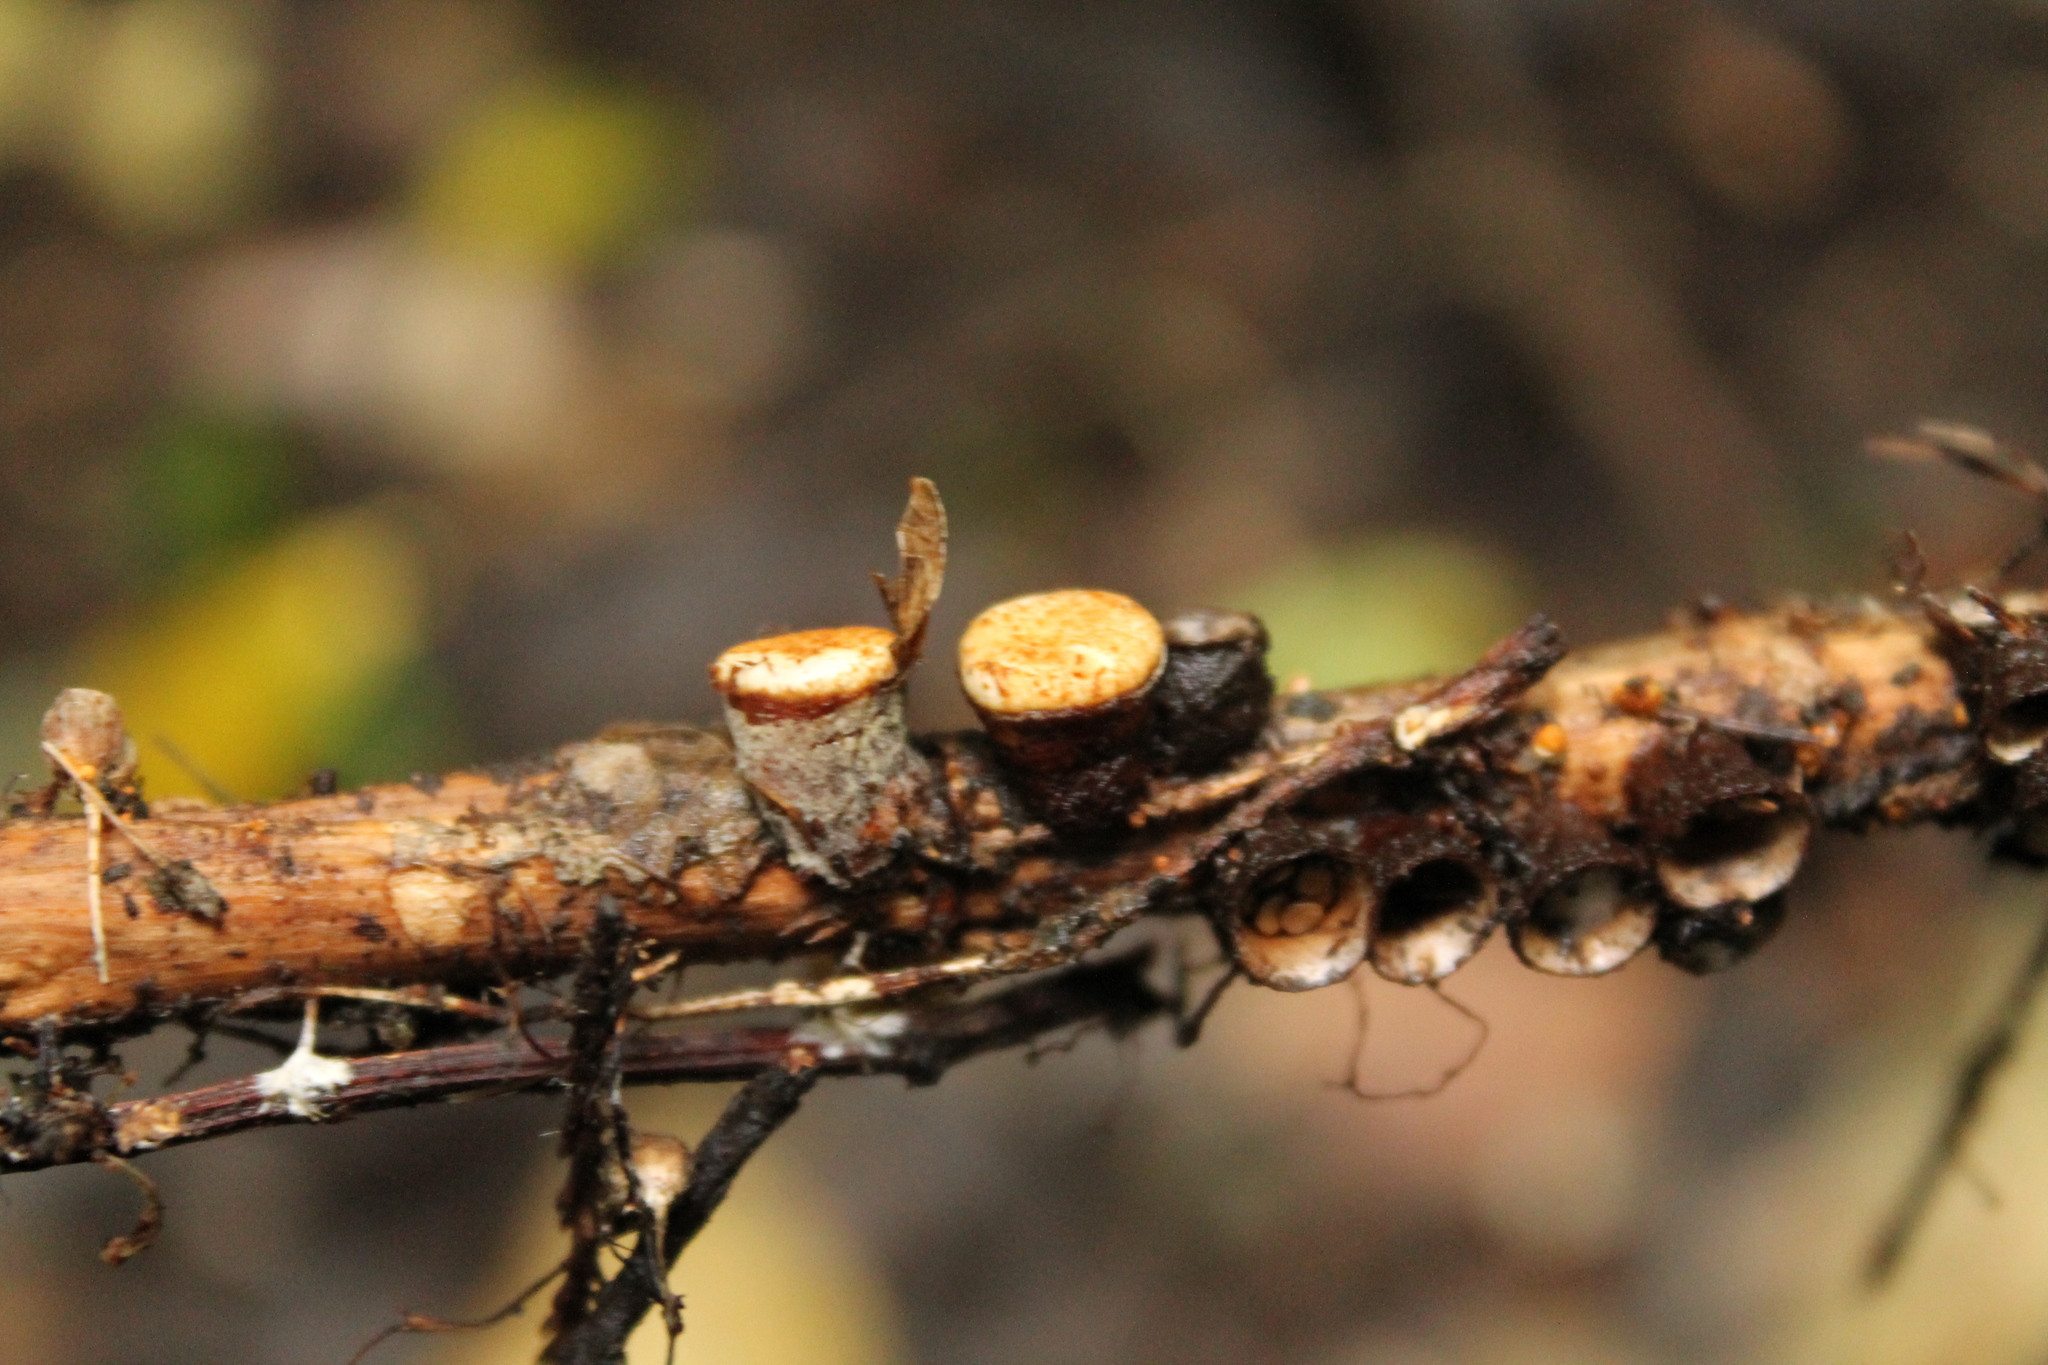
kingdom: Fungi
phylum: Basidiomycota
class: Agaricomycetes
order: Agaricales
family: Nidulariaceae
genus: Crucibulum
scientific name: Crucibulum simile
